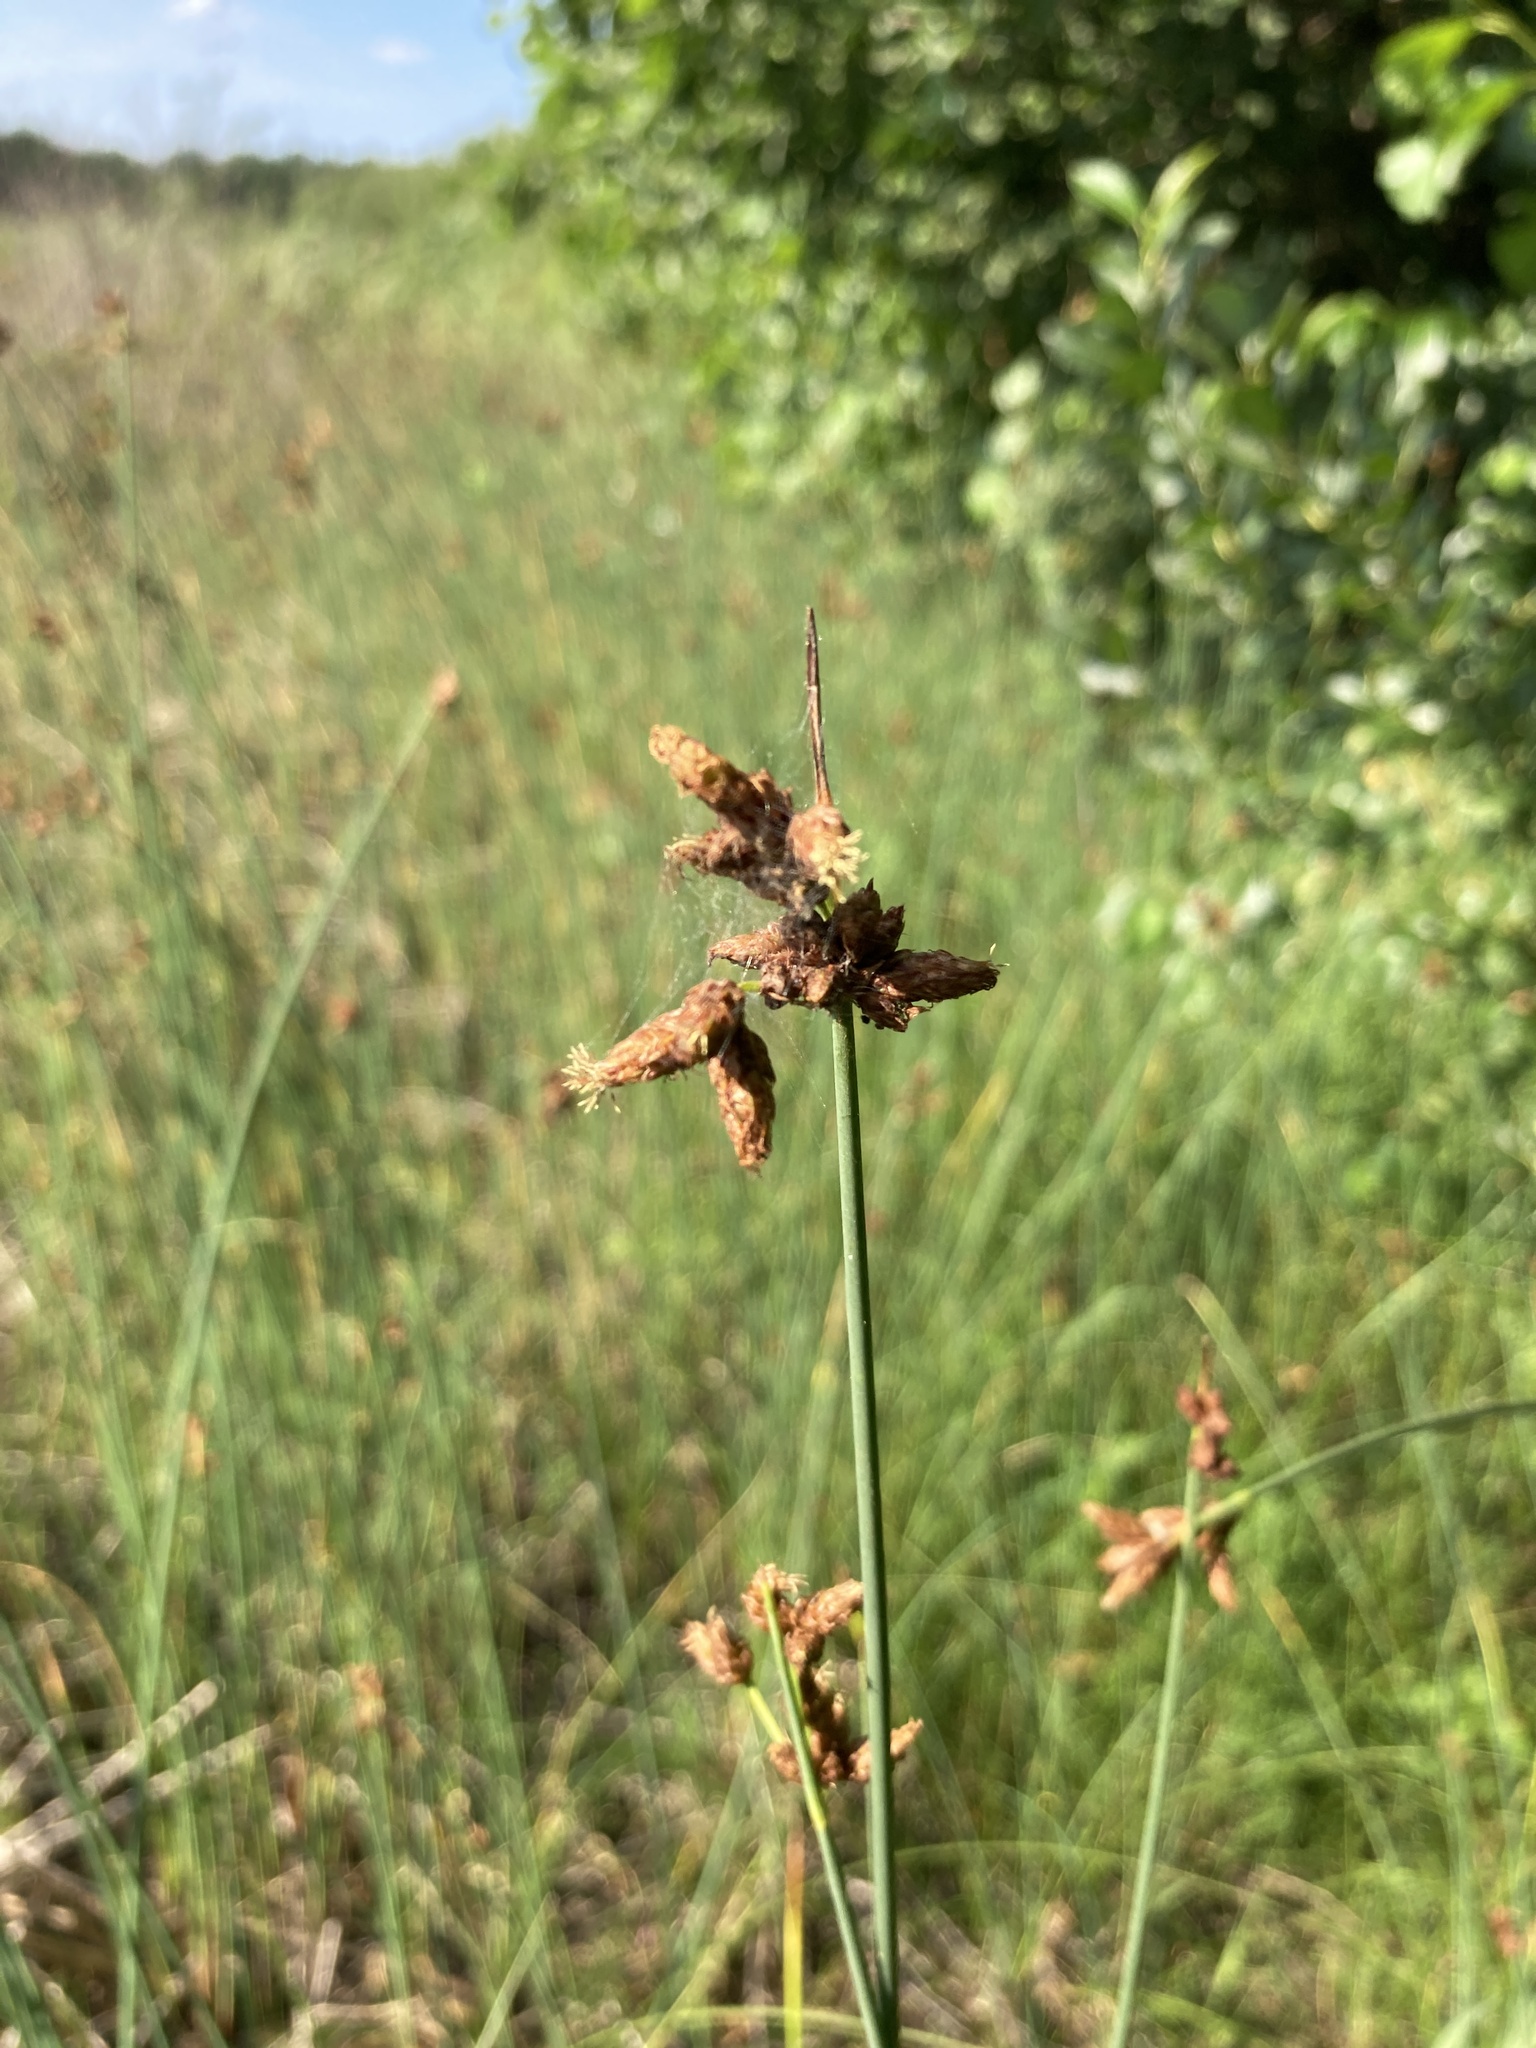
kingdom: Plantae
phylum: Tracheophyta
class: Liliopsida
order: Poales
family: Cyperaceae
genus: Schoenoplectus
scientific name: Schoenoplectus lacustris
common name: Common club-rush
